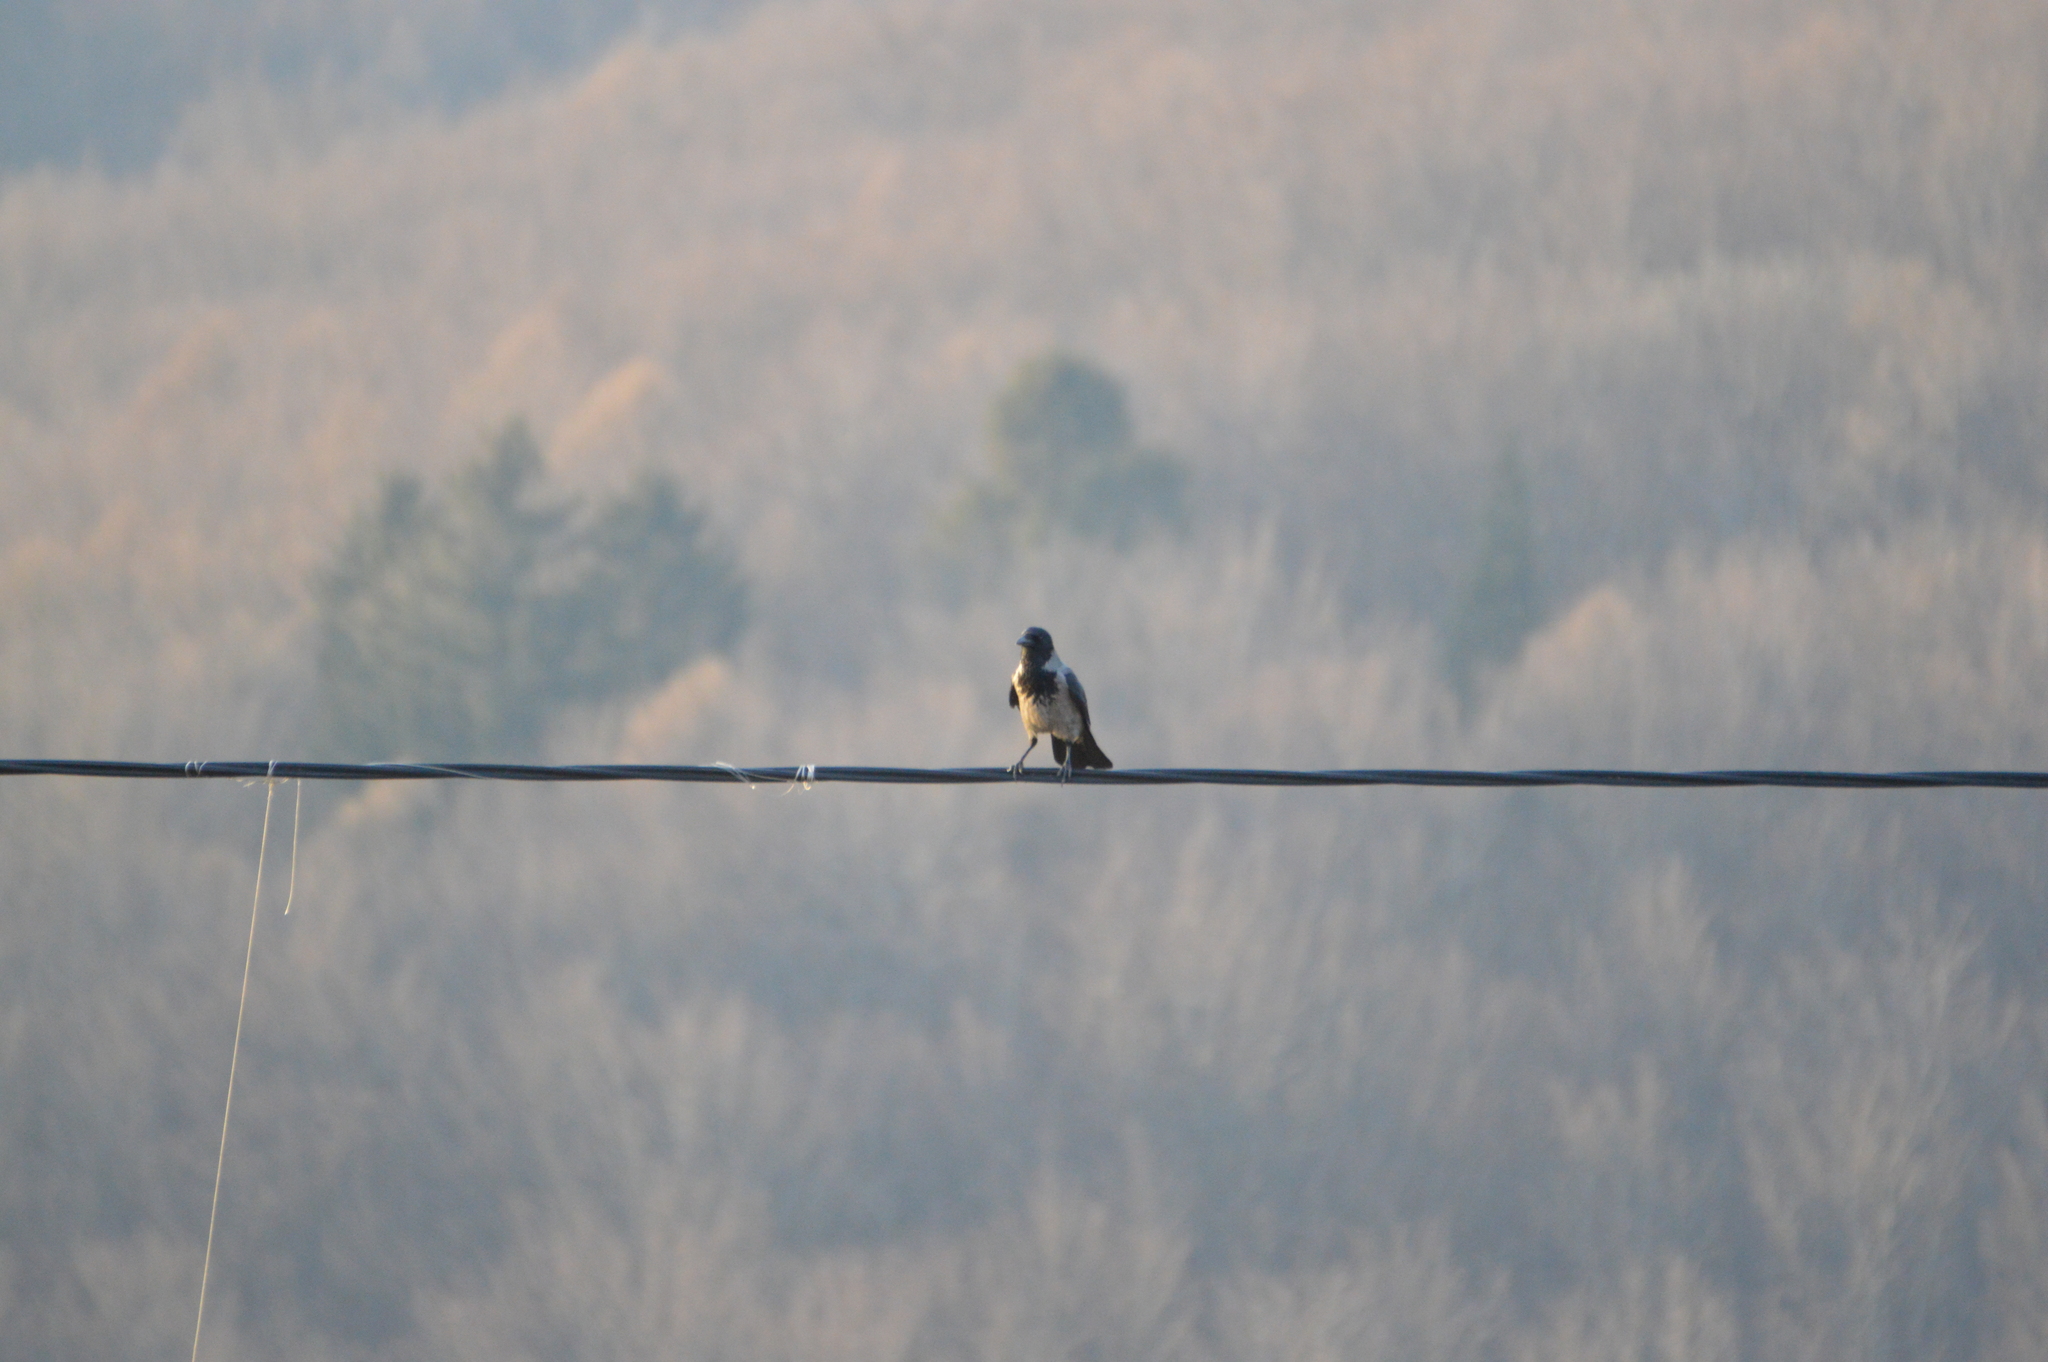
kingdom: Animalia
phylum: Chordata
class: Aves
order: Passeriformes
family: Corvidae
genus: Corvus
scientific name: Corvus cornix
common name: Hooded crow
